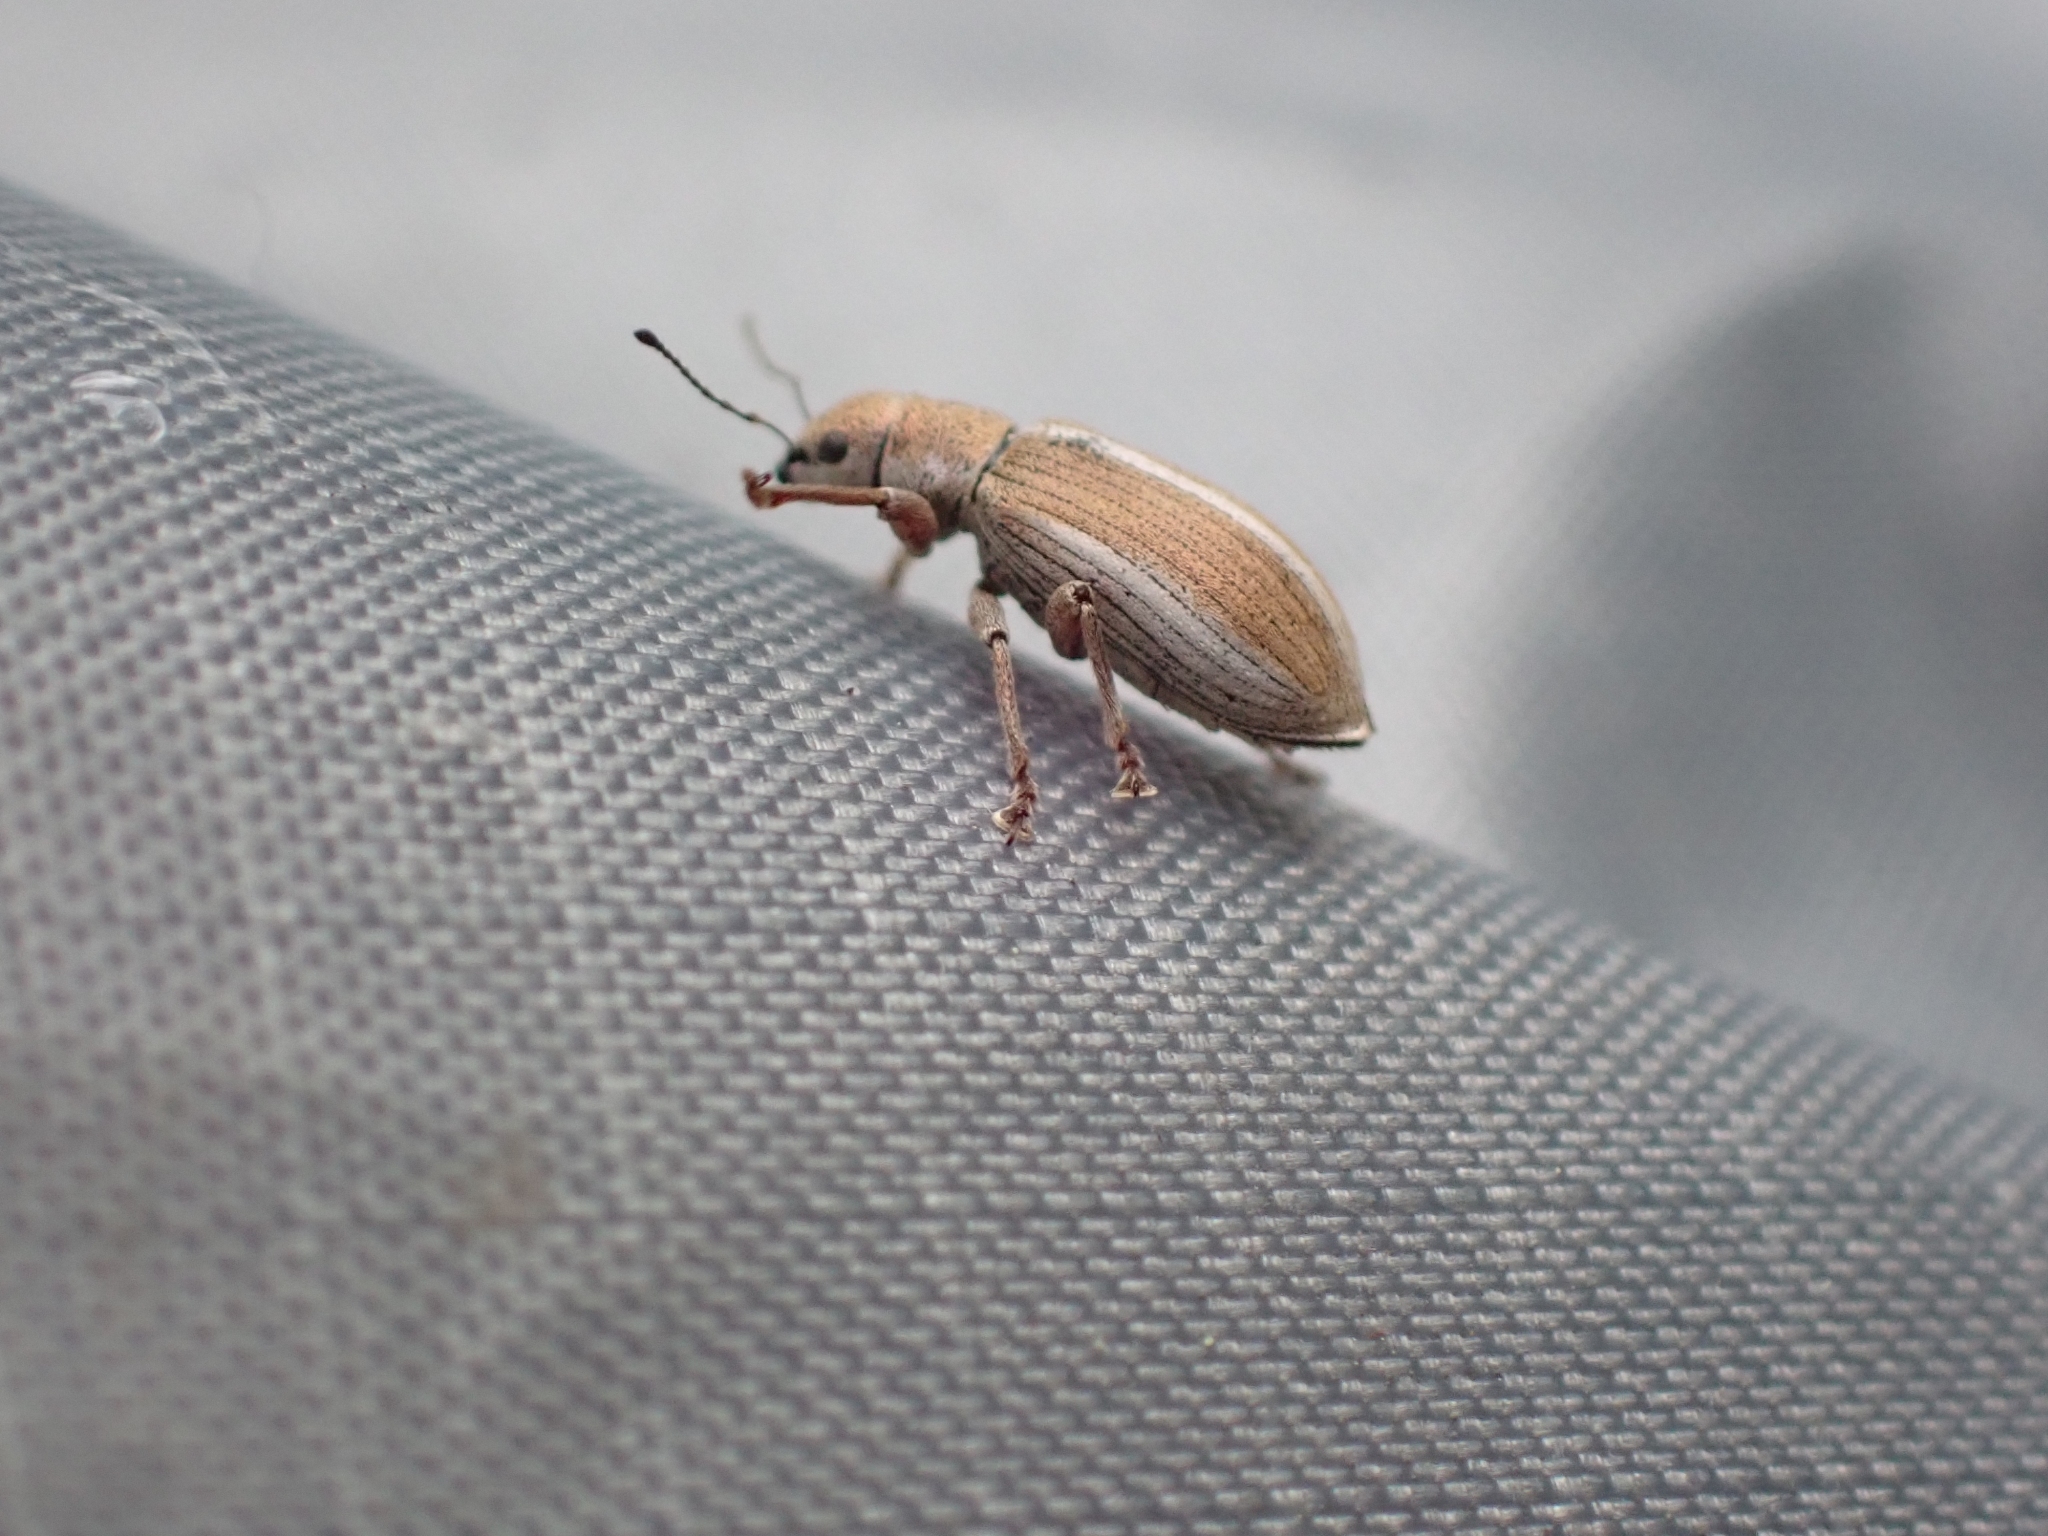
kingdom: Animalia
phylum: Arthropoda
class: Insecta
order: Coleoptera
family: Curculionidae
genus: Pachyrhinus
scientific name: Pachyrhinus elegans
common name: Weevil
